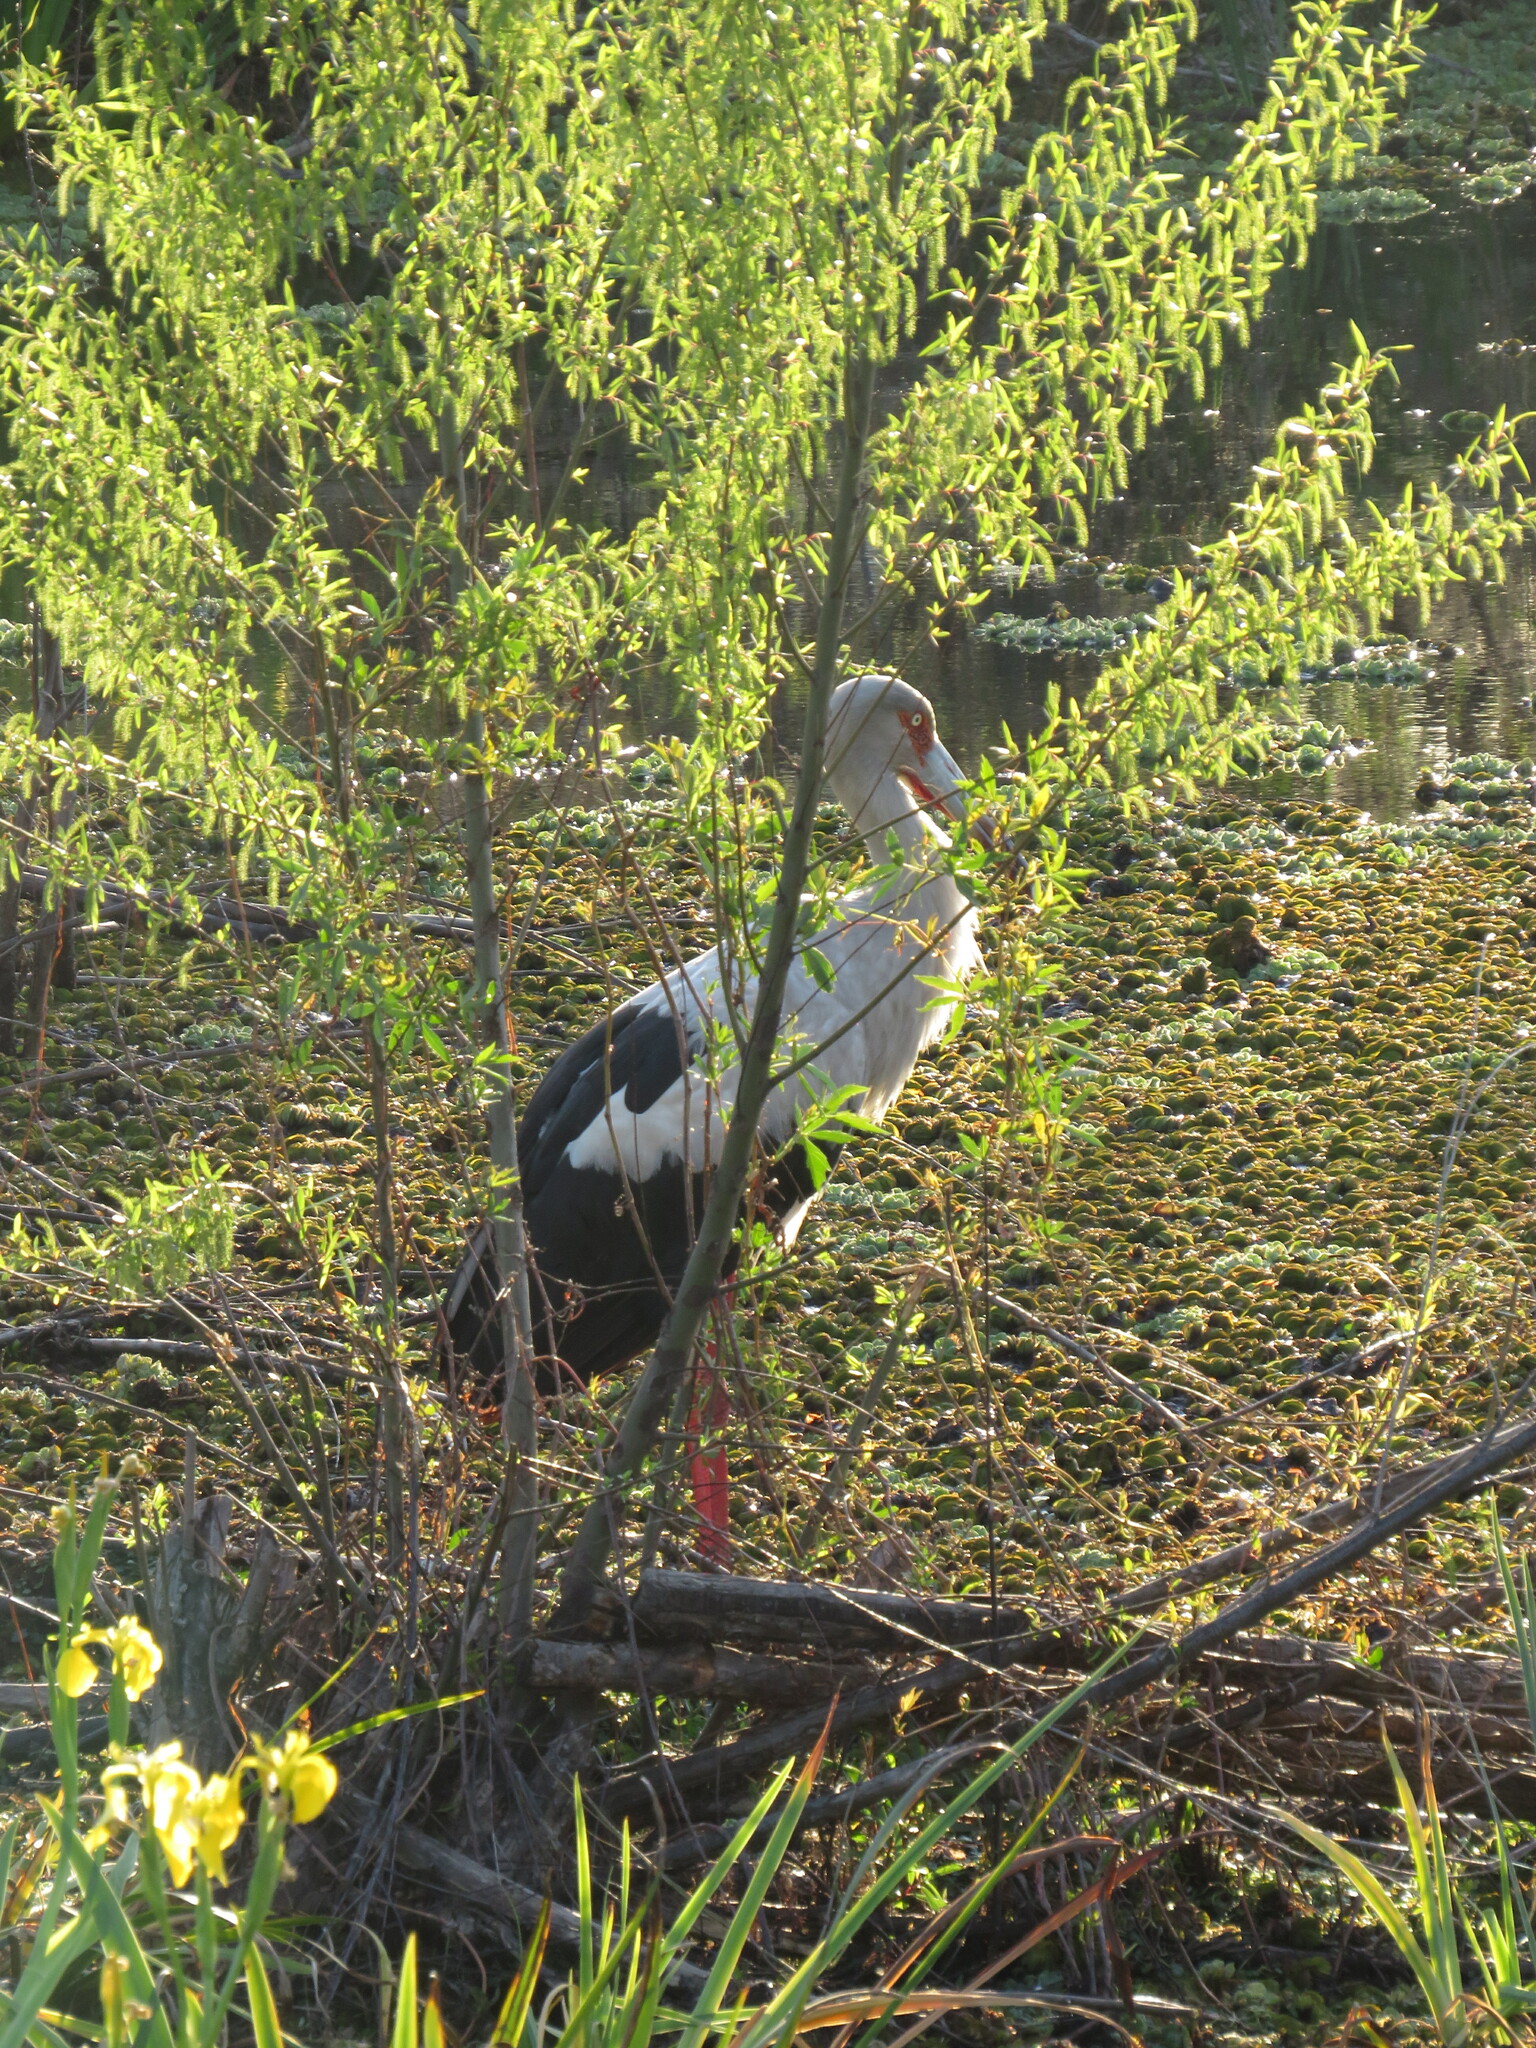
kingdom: Animalia
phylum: Chordata
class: Aves
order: Ciconiiformes
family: Ciconiidae
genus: Ciconia
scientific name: Ciconia maguari
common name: Maguari stork
